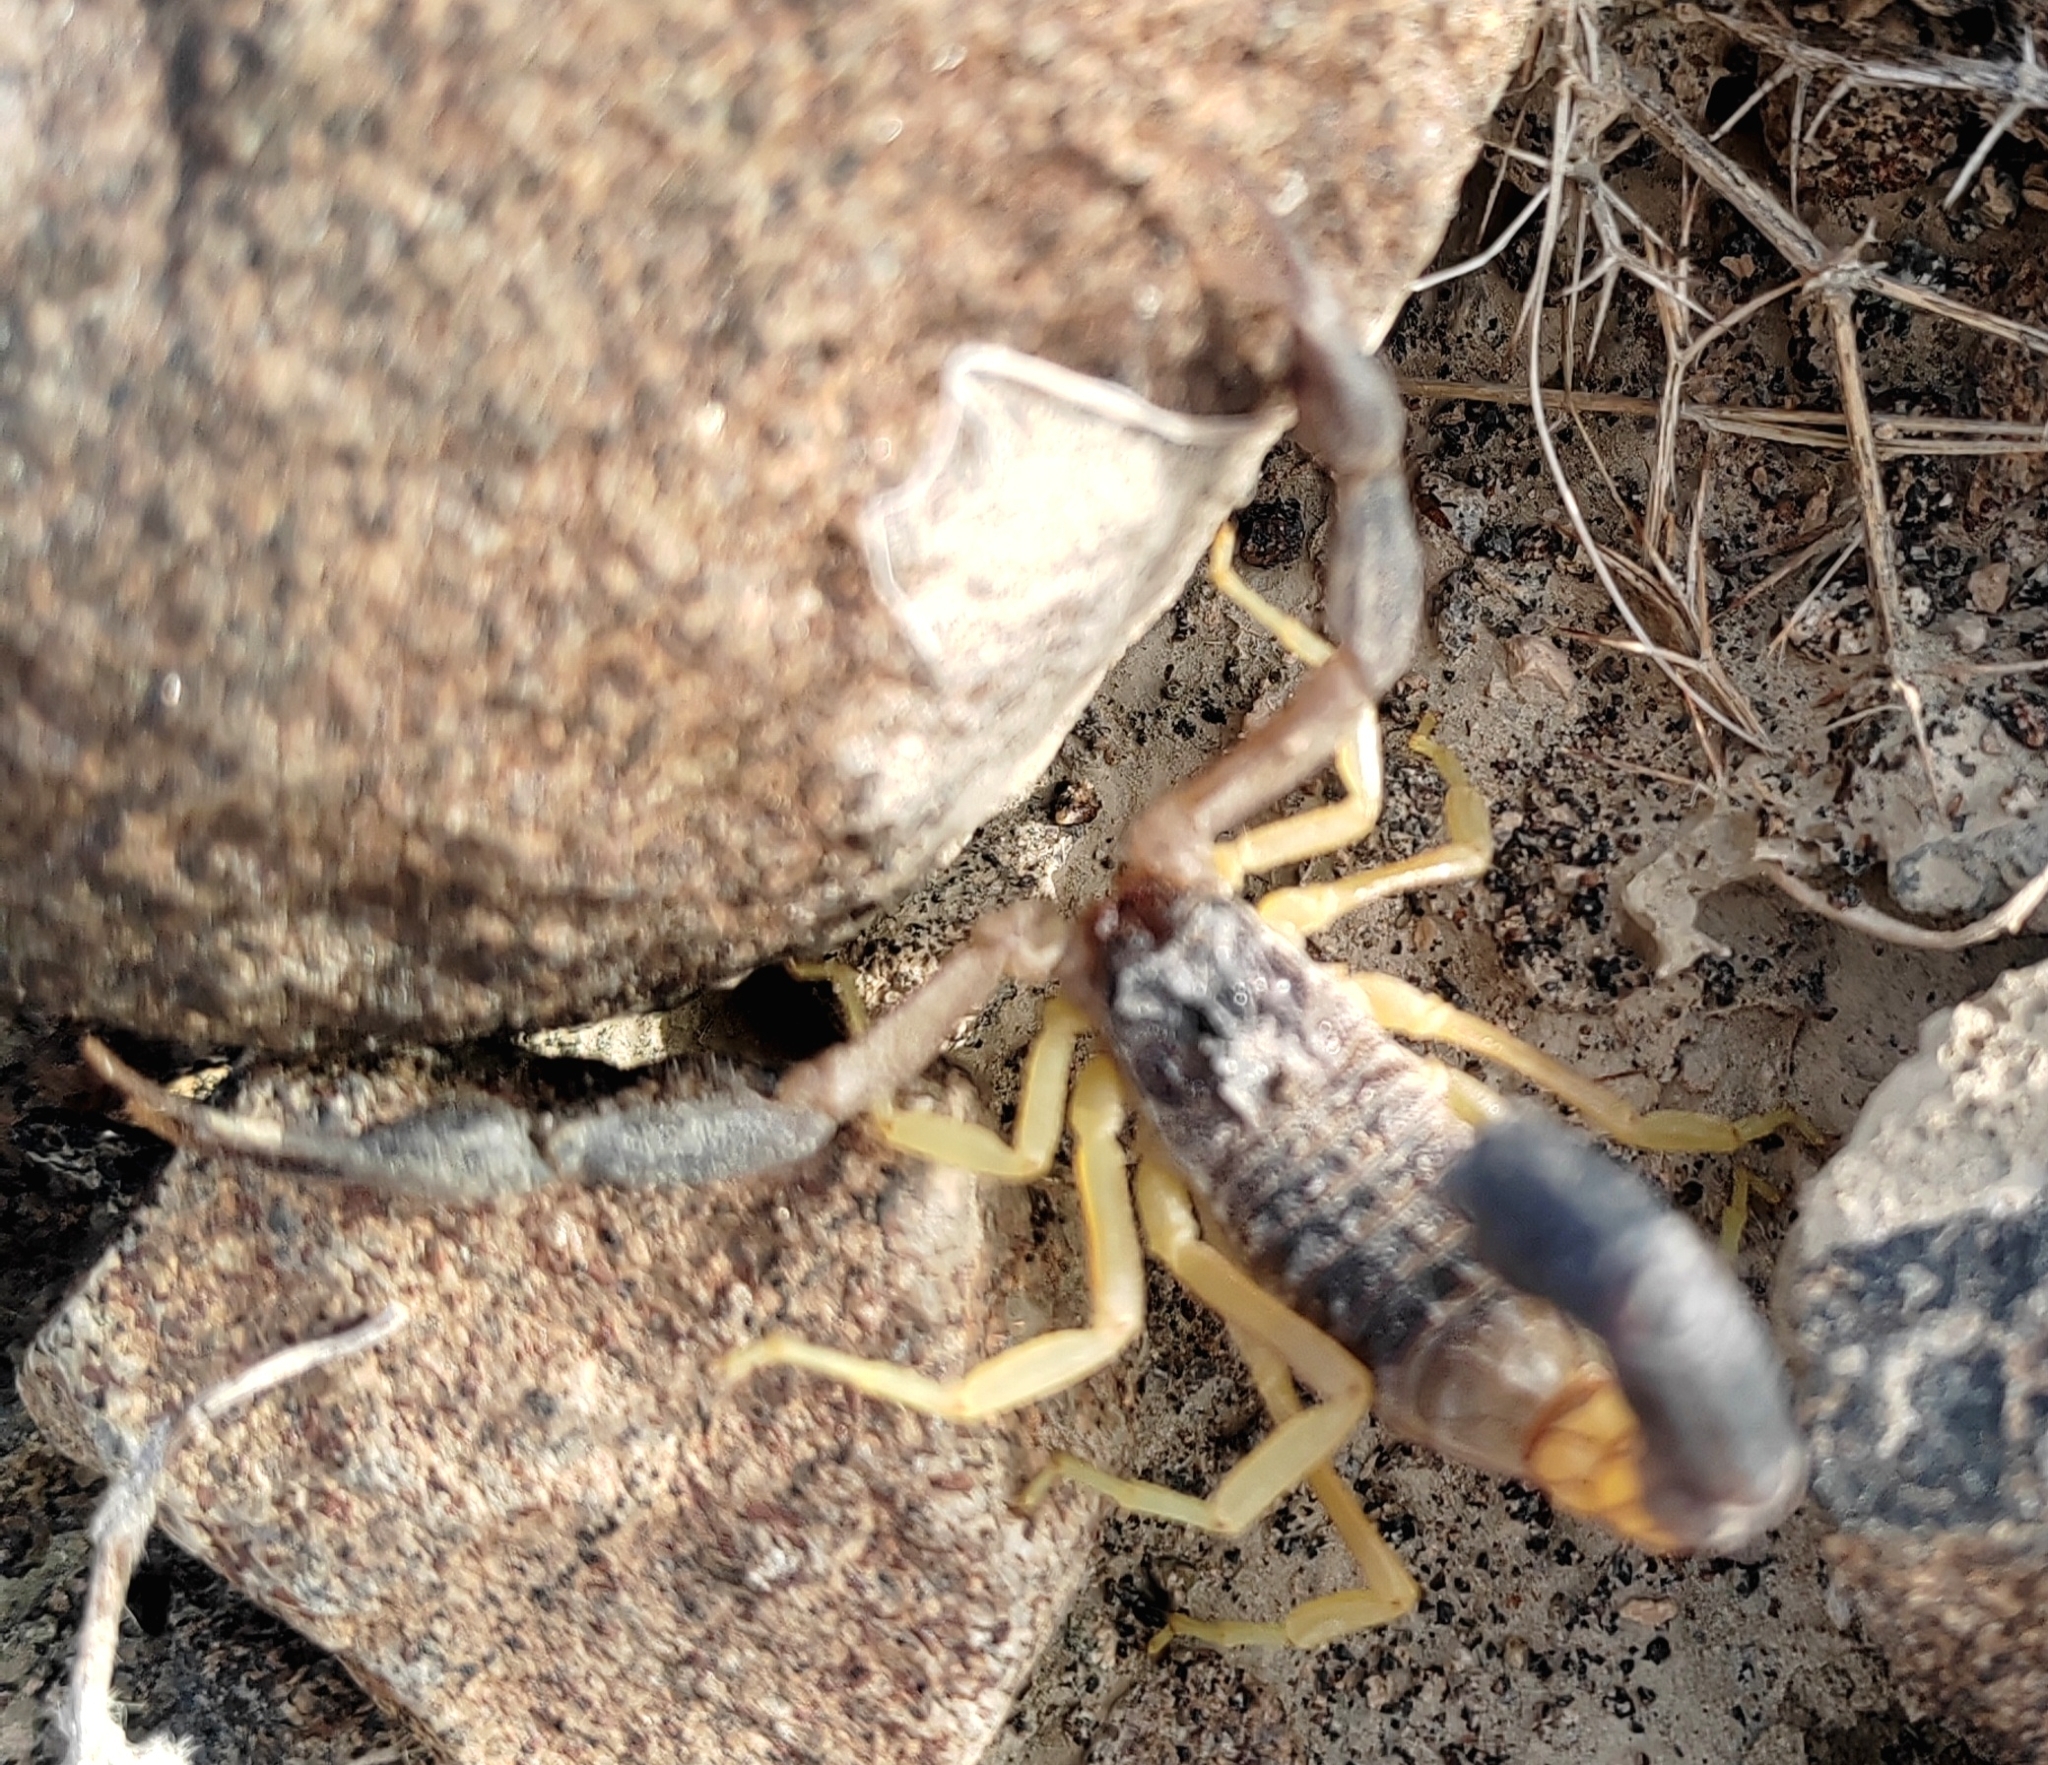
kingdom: Animalia
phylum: Arthropoda
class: Arachnida
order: Scorpiones
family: Buthidae
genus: Hottentotta
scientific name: Hottentotta jayakari
